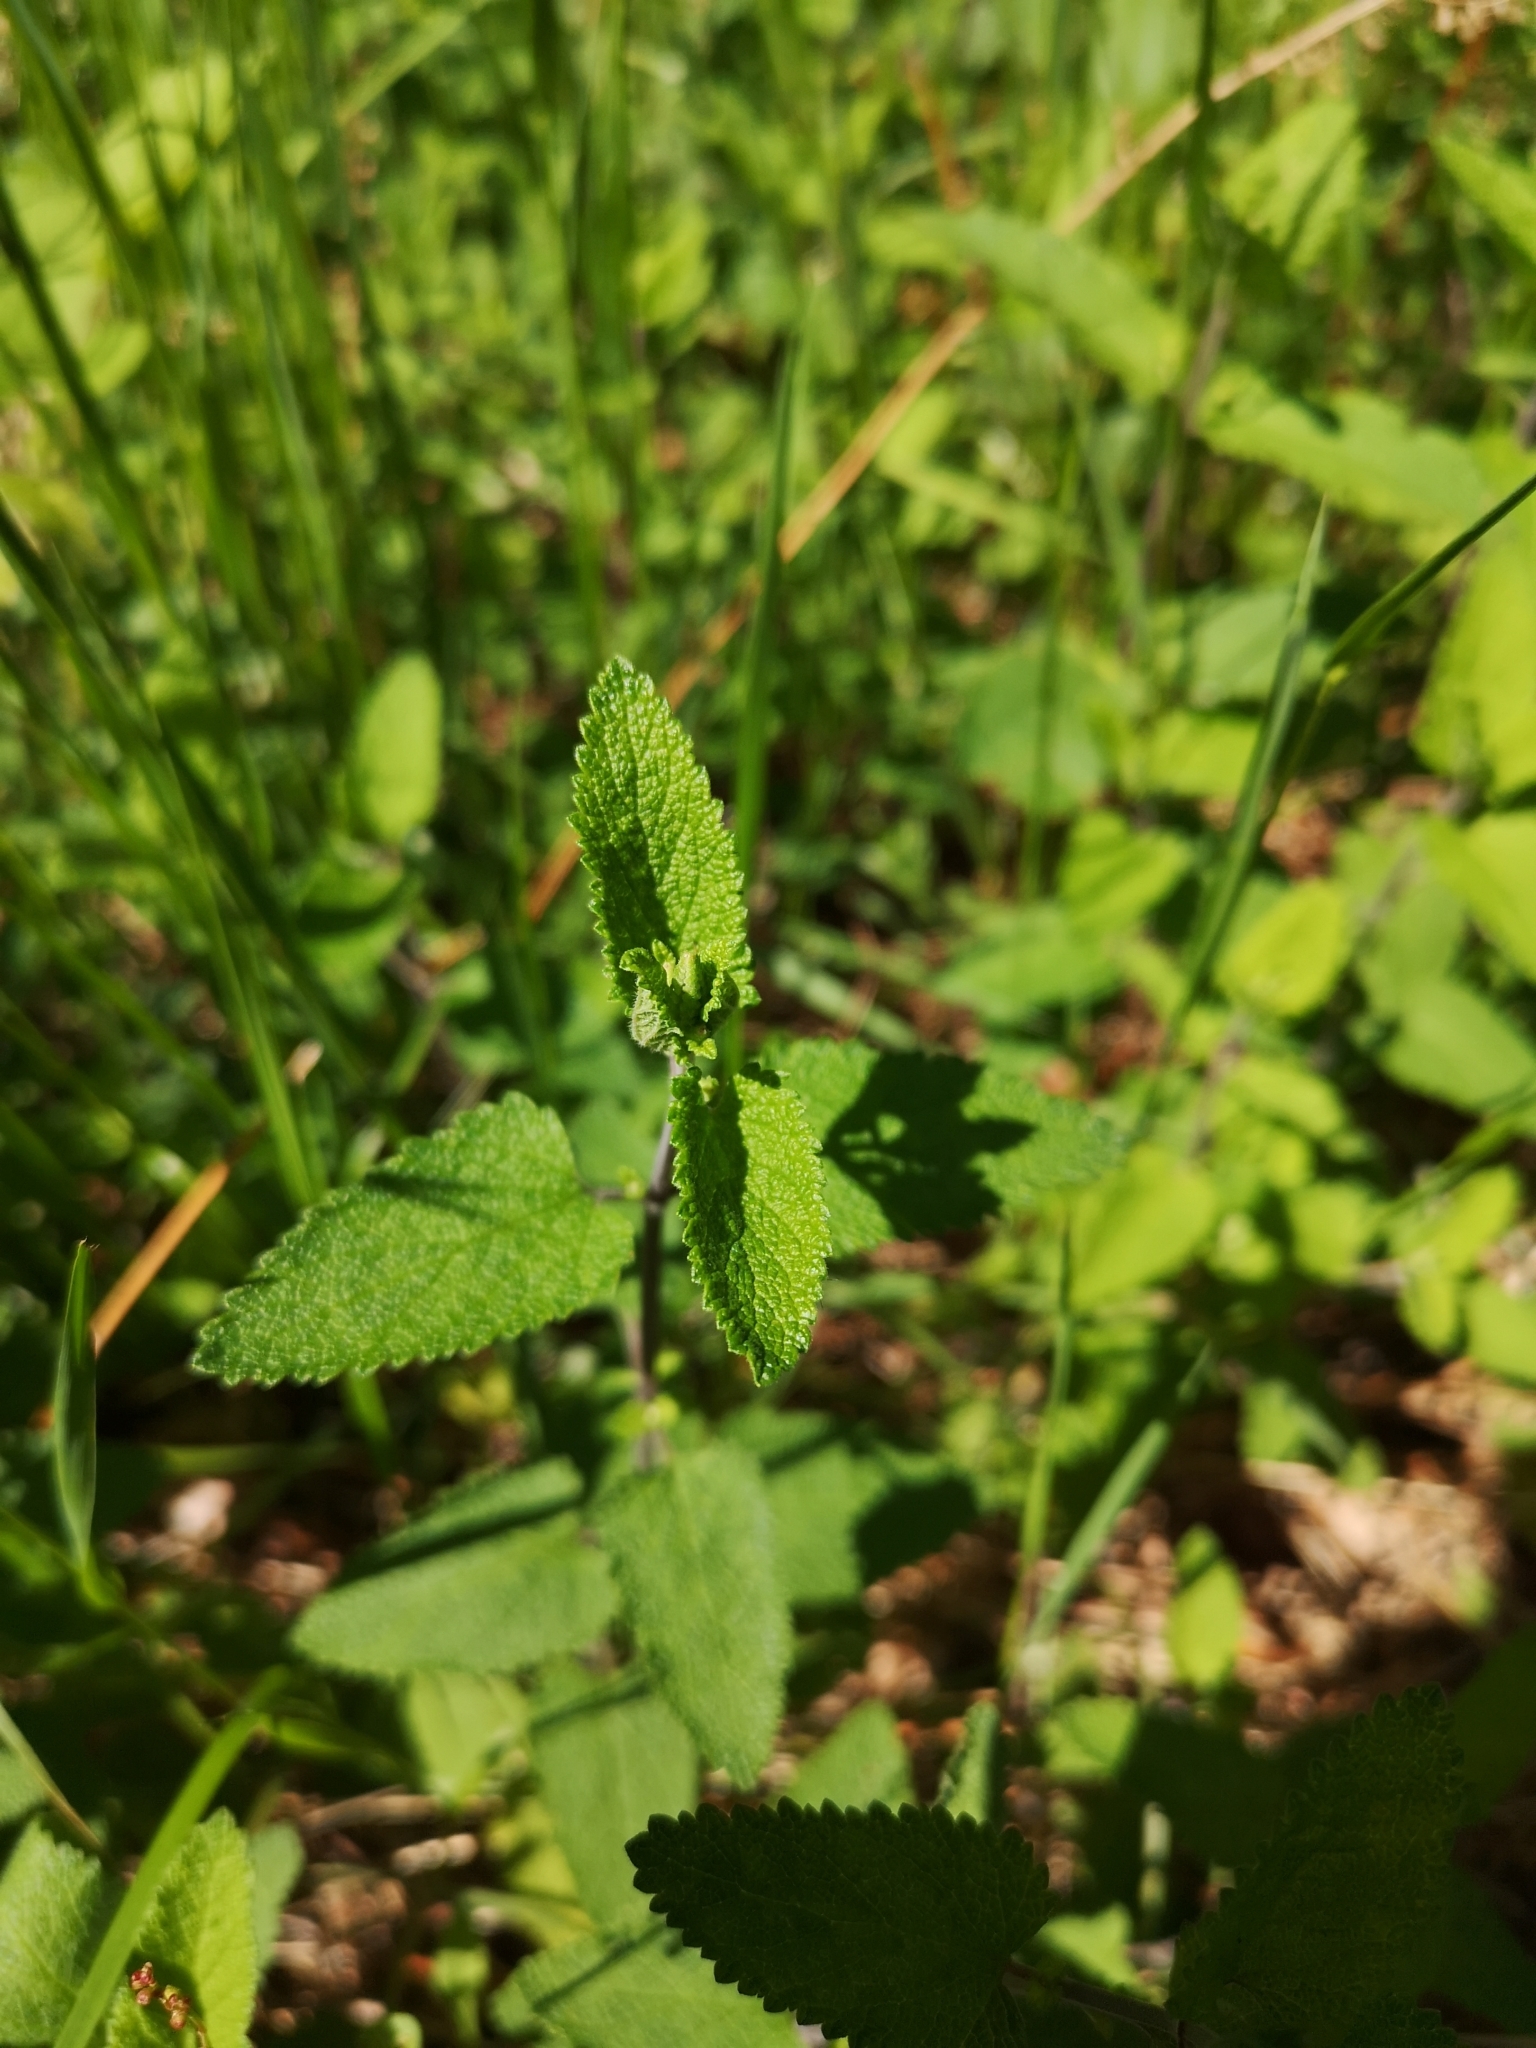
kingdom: Plantae
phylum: Tracheophyta
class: Magnoliopsida
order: Lamiales
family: Lamiaceae
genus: Teucrium
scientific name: Teucrium scorodonia
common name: Woodland germander
